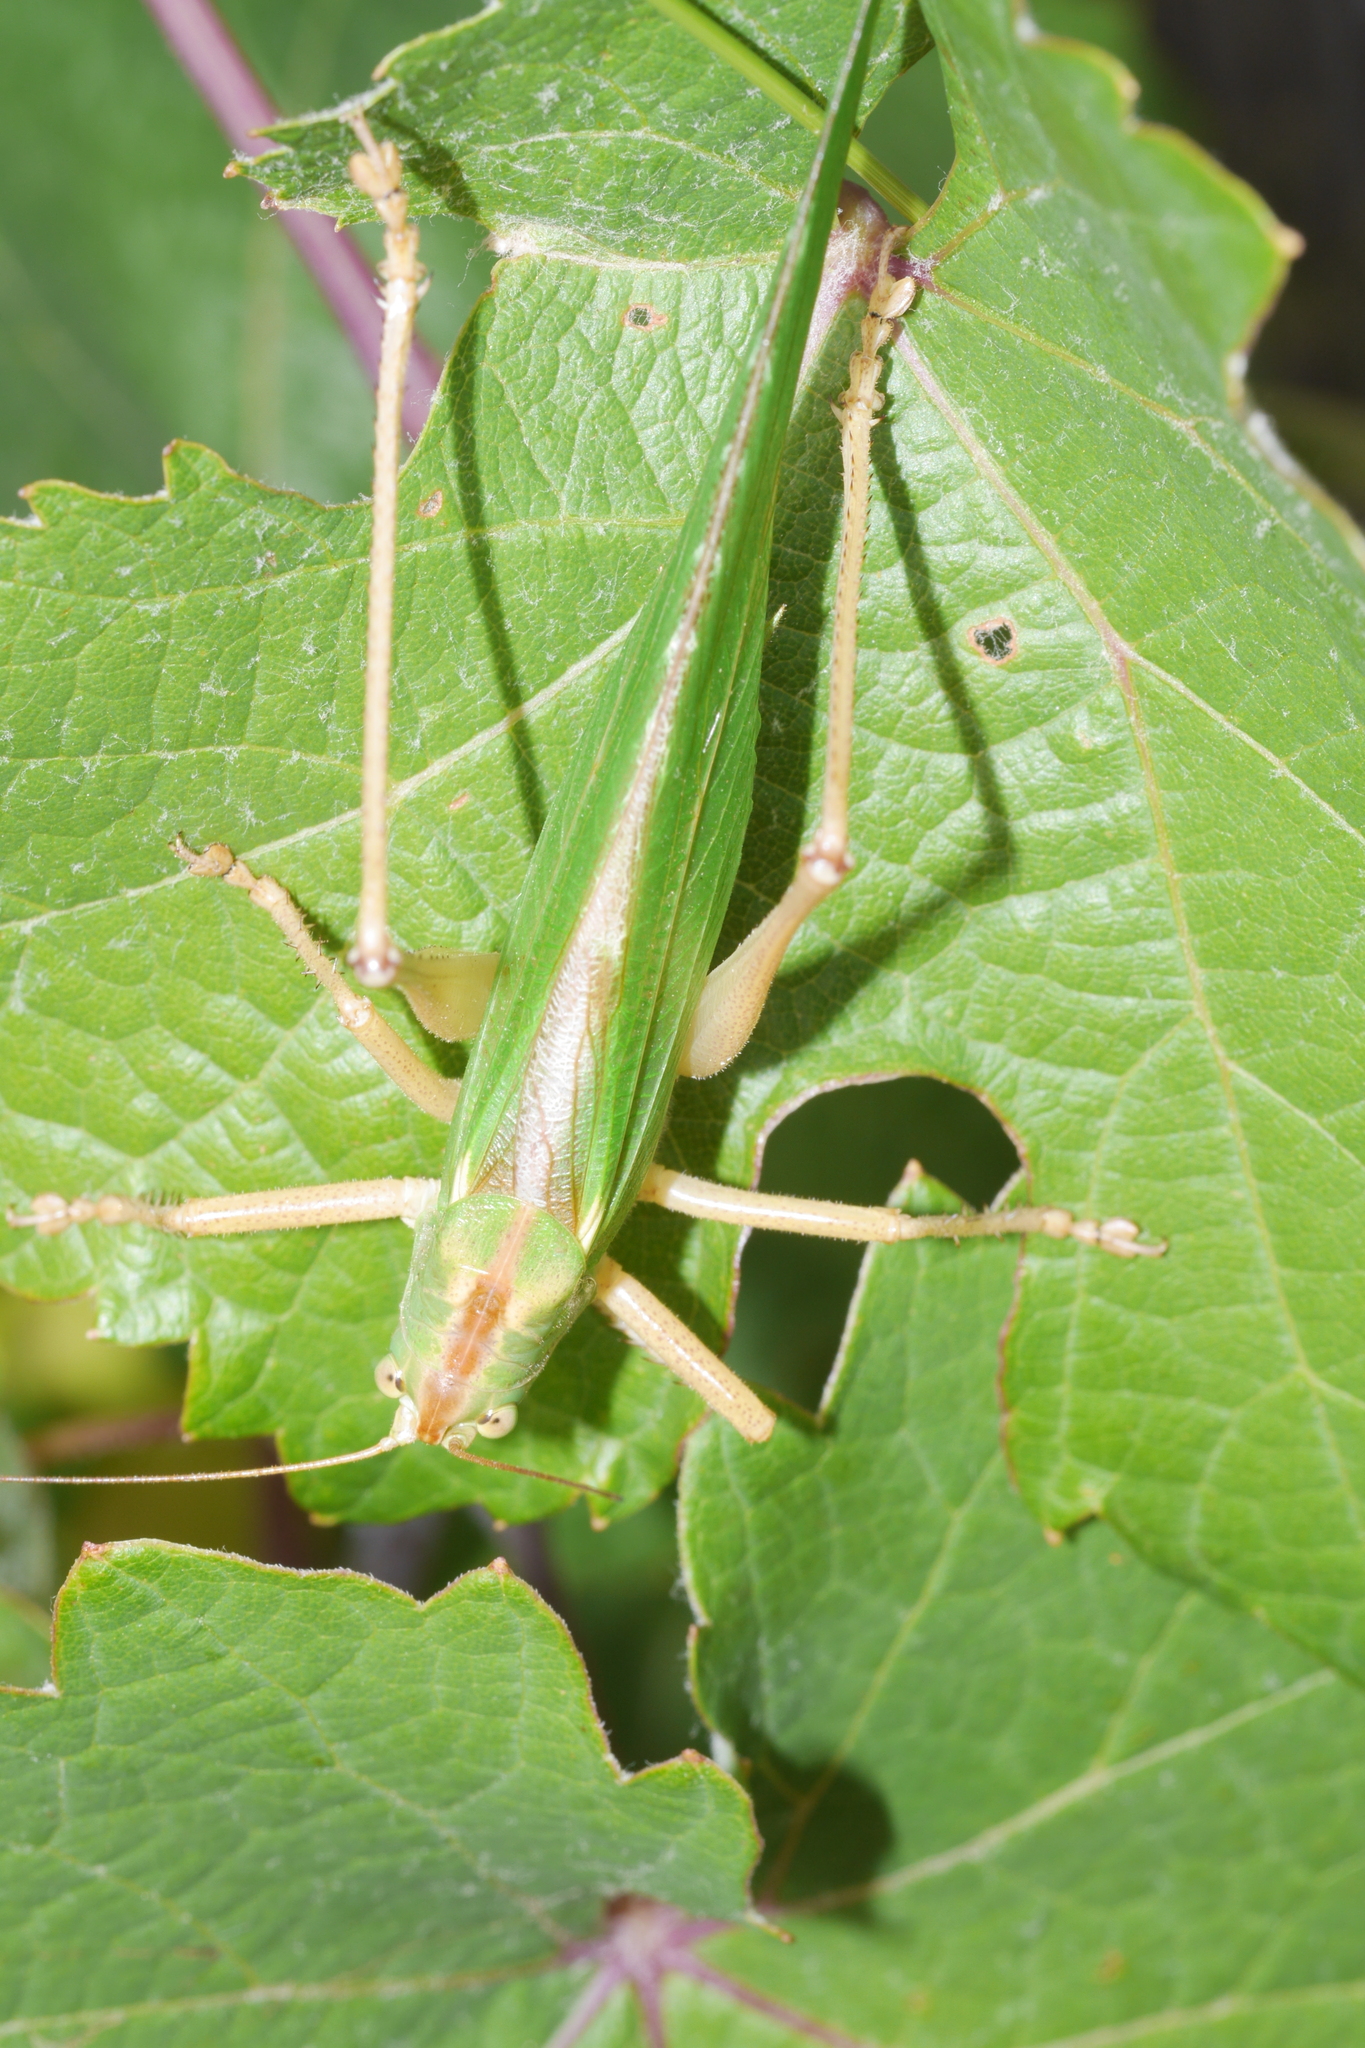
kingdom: Animalia
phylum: Arthropoda
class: Insecta
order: Orthoptera
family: Tettigoniidae
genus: Tettigonia
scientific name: Tettigonia viridissima
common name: Great green bush-cricket
